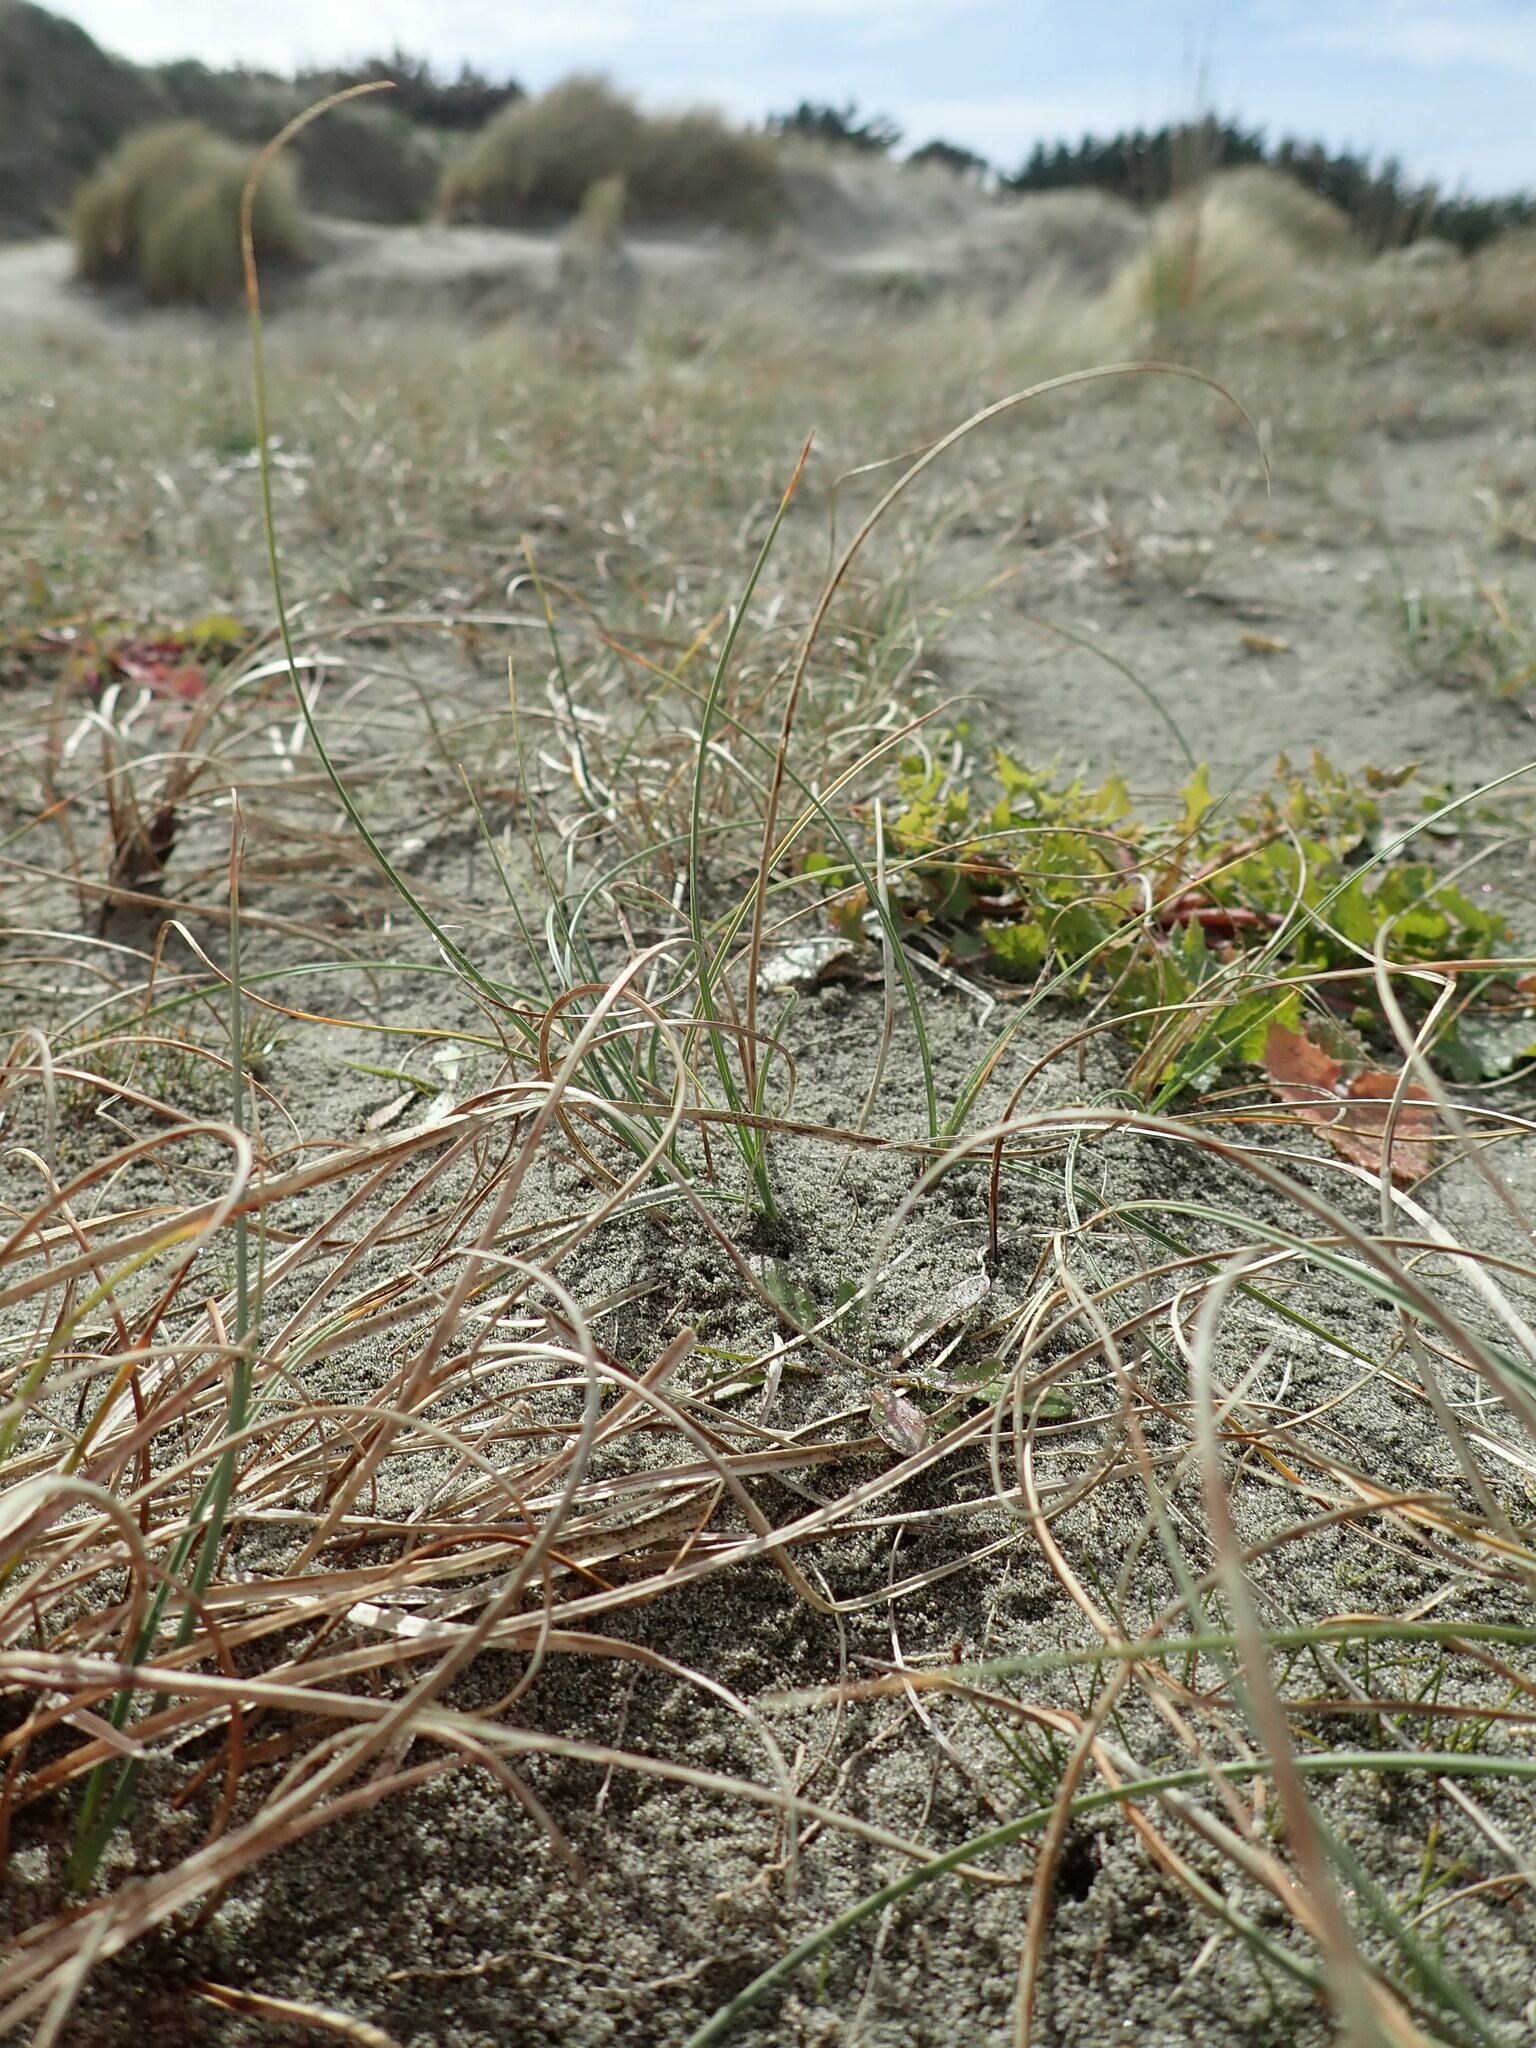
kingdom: Plantae
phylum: Tracheophyta
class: Liliopsida
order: Poales
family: Cyperaceae
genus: Carex
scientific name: Carex pumila
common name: Dwarf sedge
